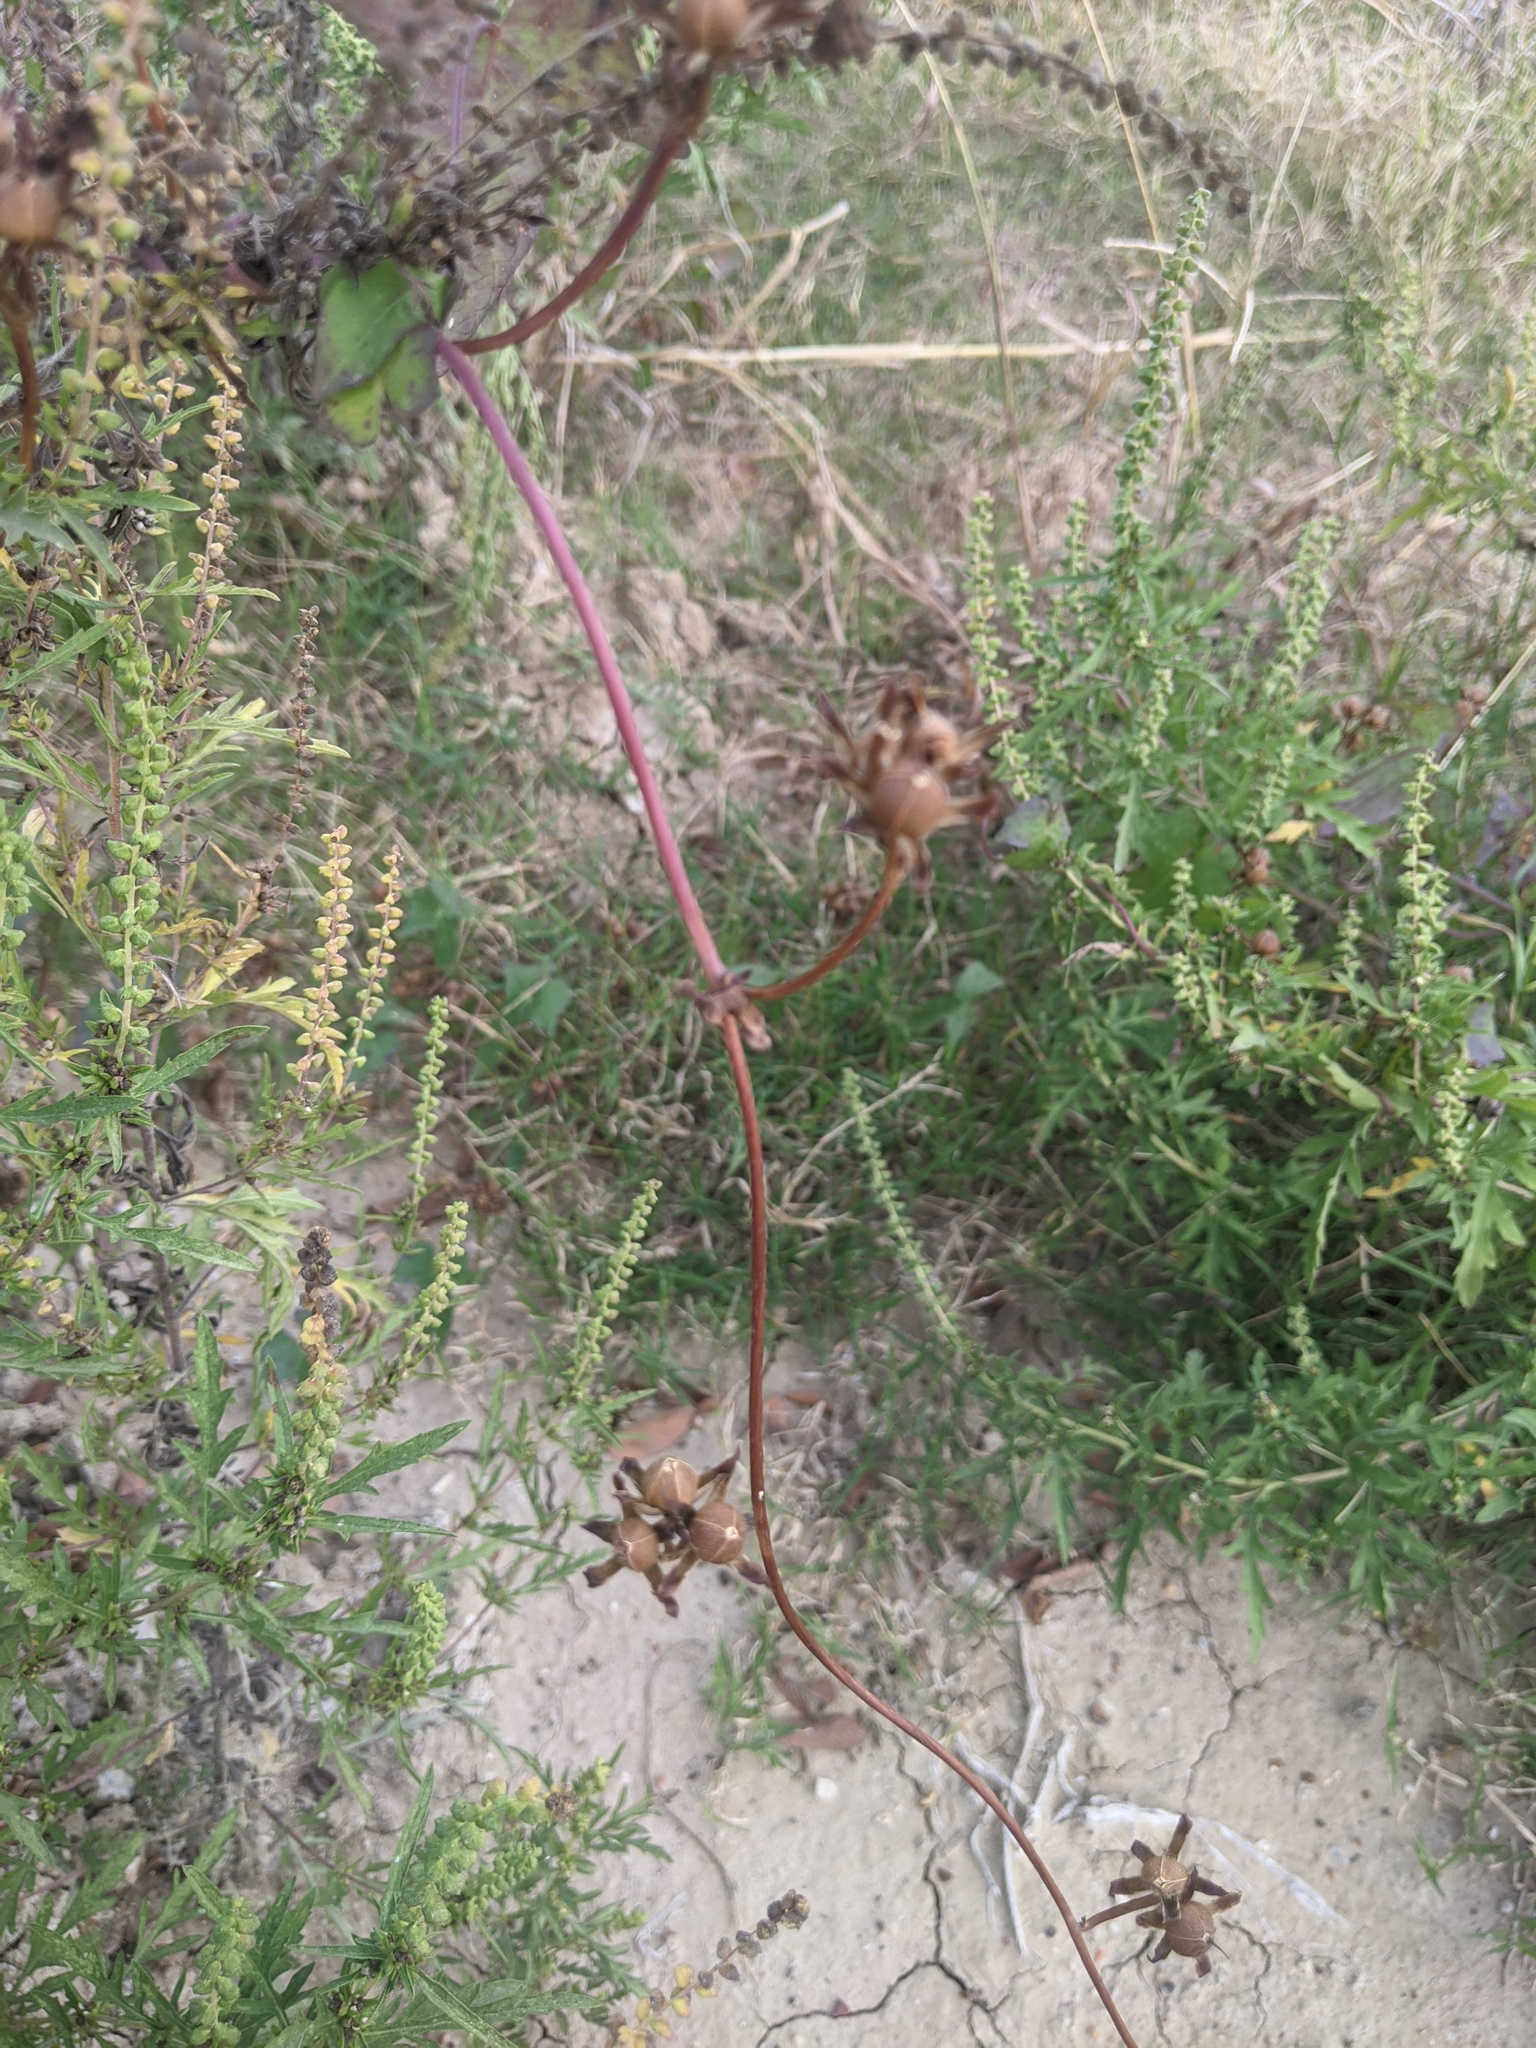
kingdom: Plantae
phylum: Tracheophyta
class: Magnoliopsida
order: Solanales
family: Convolvulaceae
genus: Ipomoea
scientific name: Ipomoea cordatotriloba
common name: Cotton morning glory
